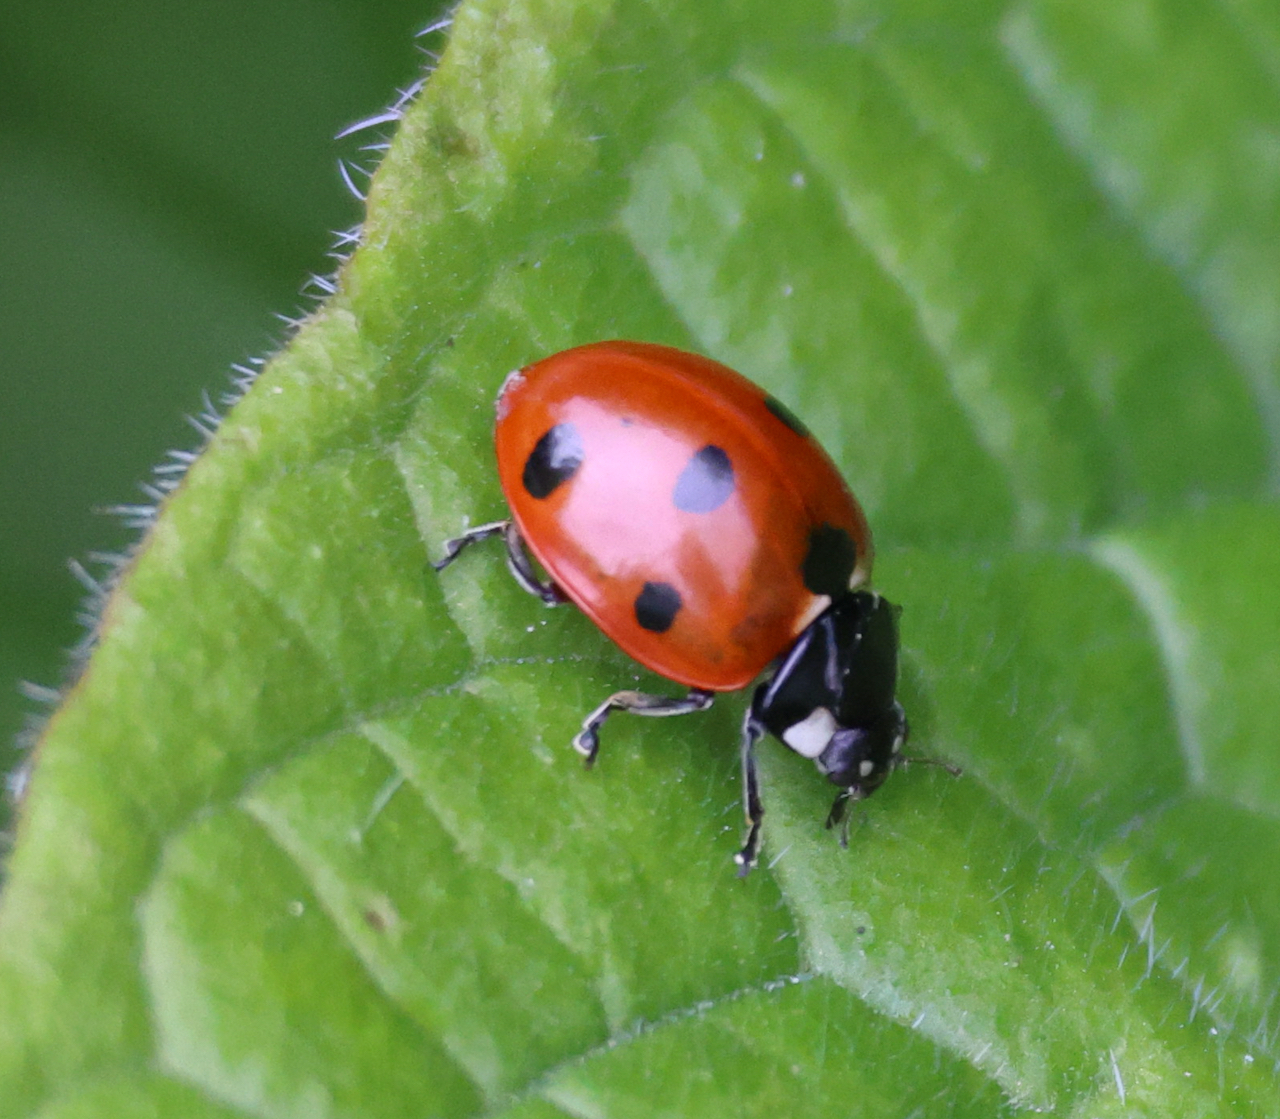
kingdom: Animalia
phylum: Arthropoda
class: Insecta
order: Coleoptera
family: Coccinellidae
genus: Coccinella
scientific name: Coccinella septempunctata
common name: Sevenspotted lady beetle
